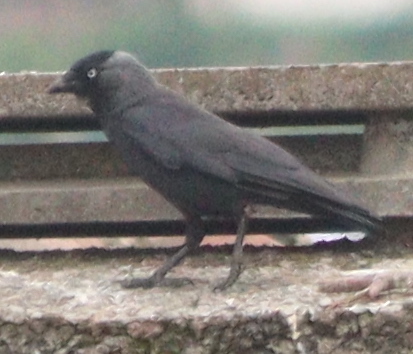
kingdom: Animalia
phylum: Chordata
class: Aves
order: Passeriformes
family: Corvidae
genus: Coloeus
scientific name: Coloeus monedula
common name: Western jackdaw
